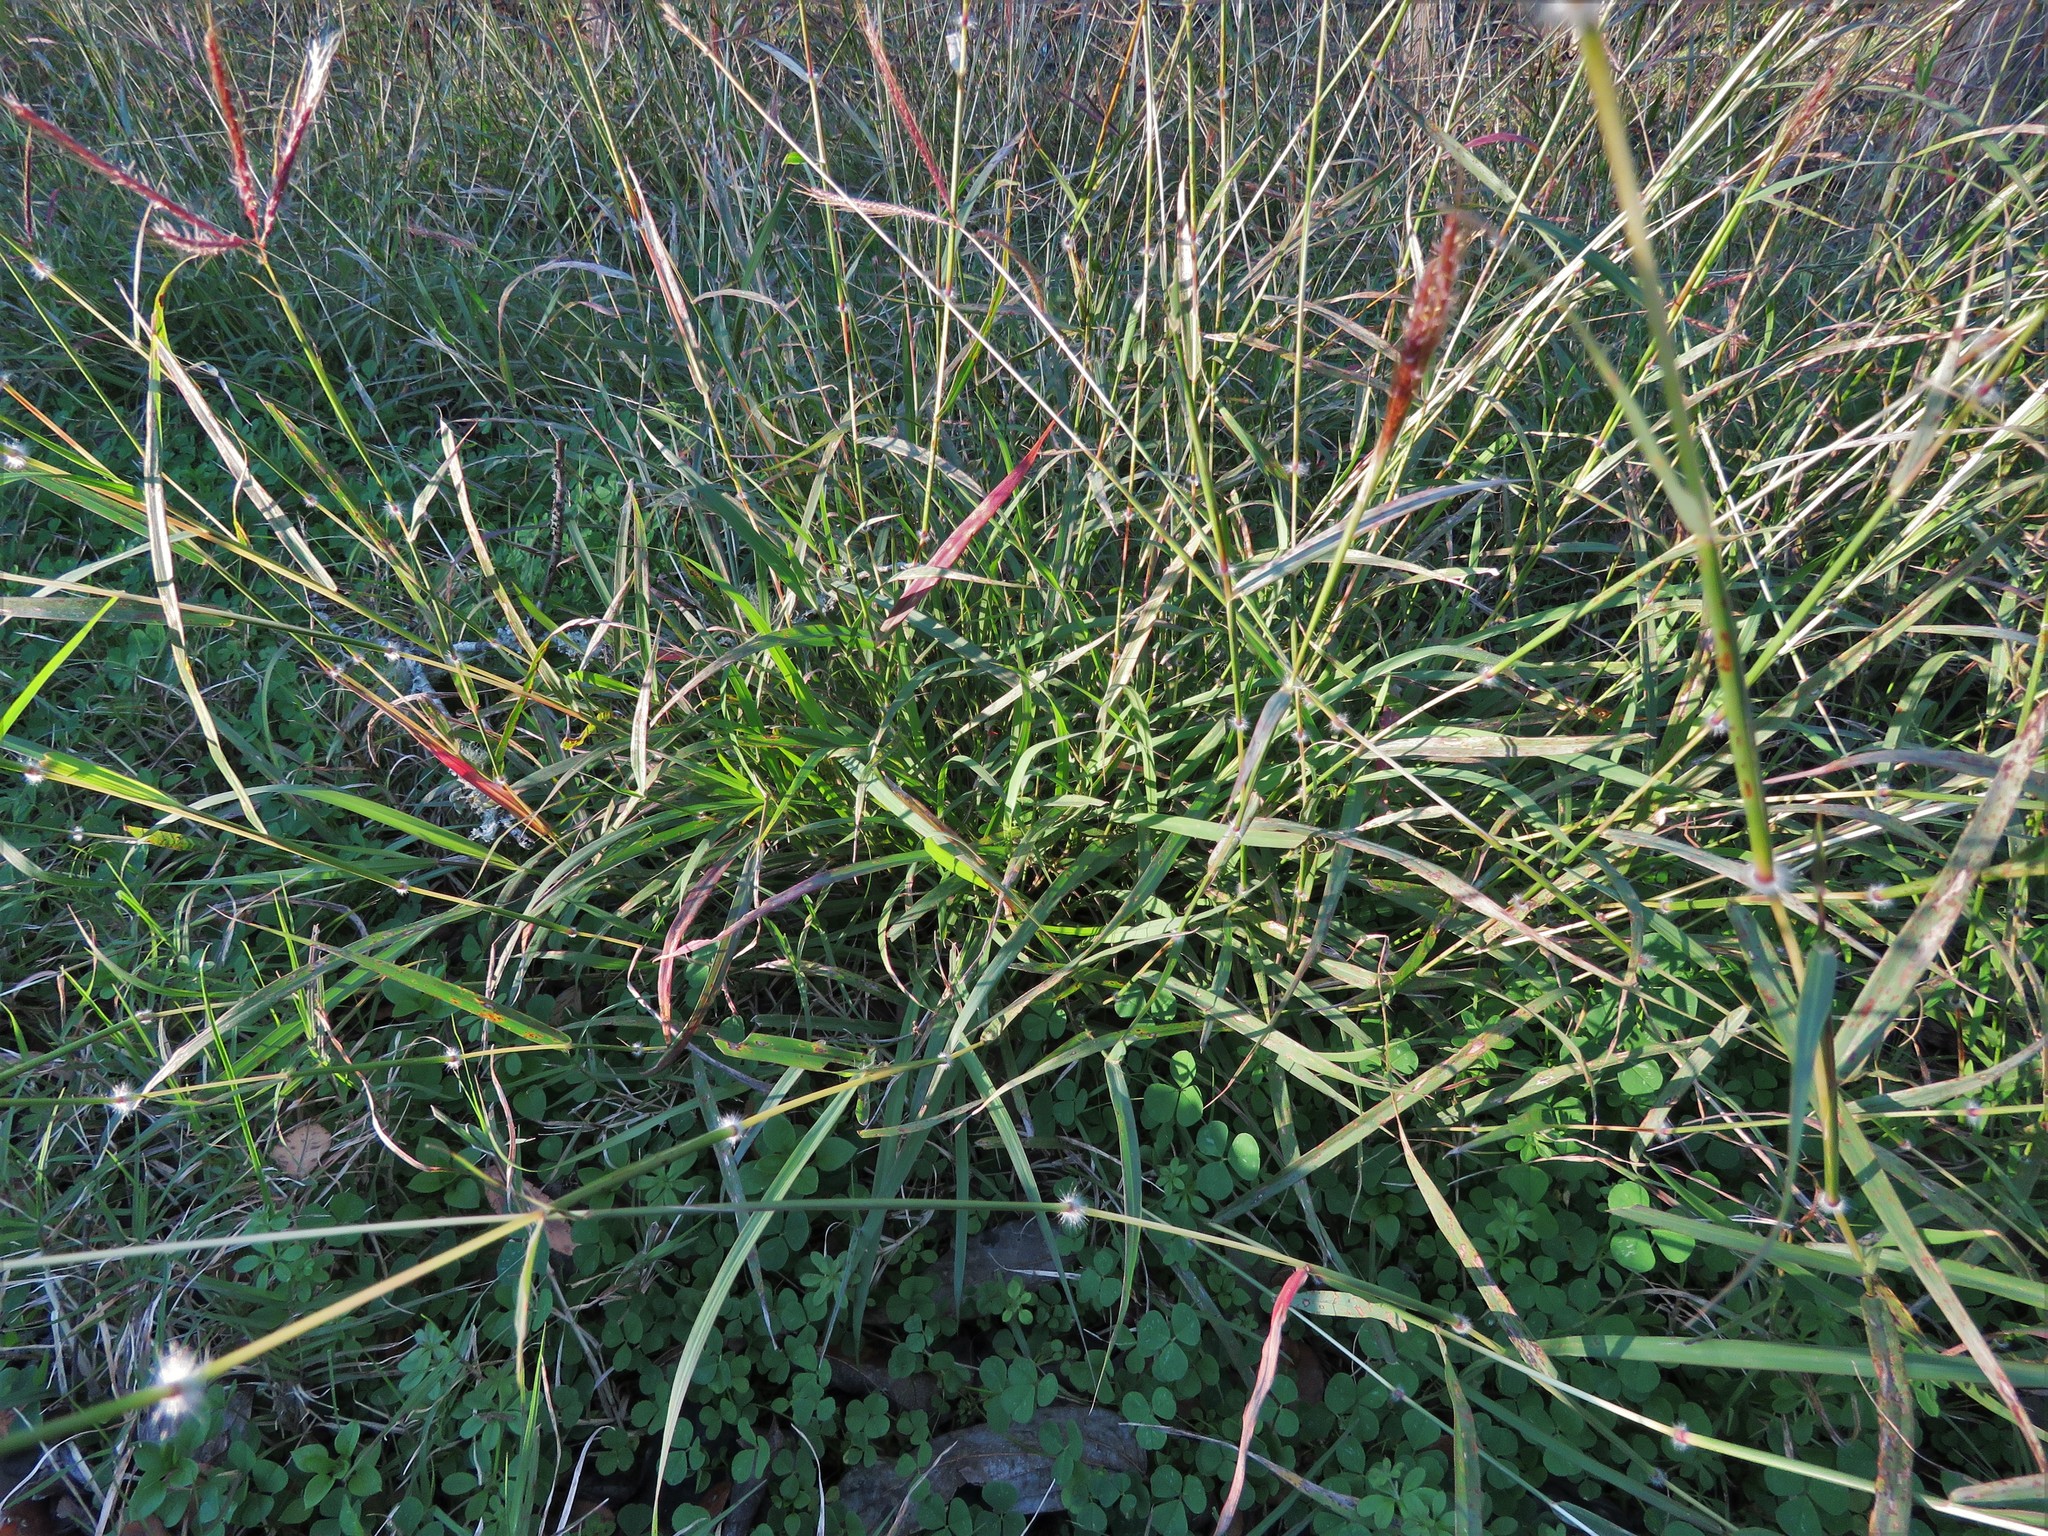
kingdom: Plantae
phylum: Tracheophyta
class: Liliopsida
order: Poales
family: Poaceae
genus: Dichanthium
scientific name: Dichanthium annulatum
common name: Kleberg's bluestem
